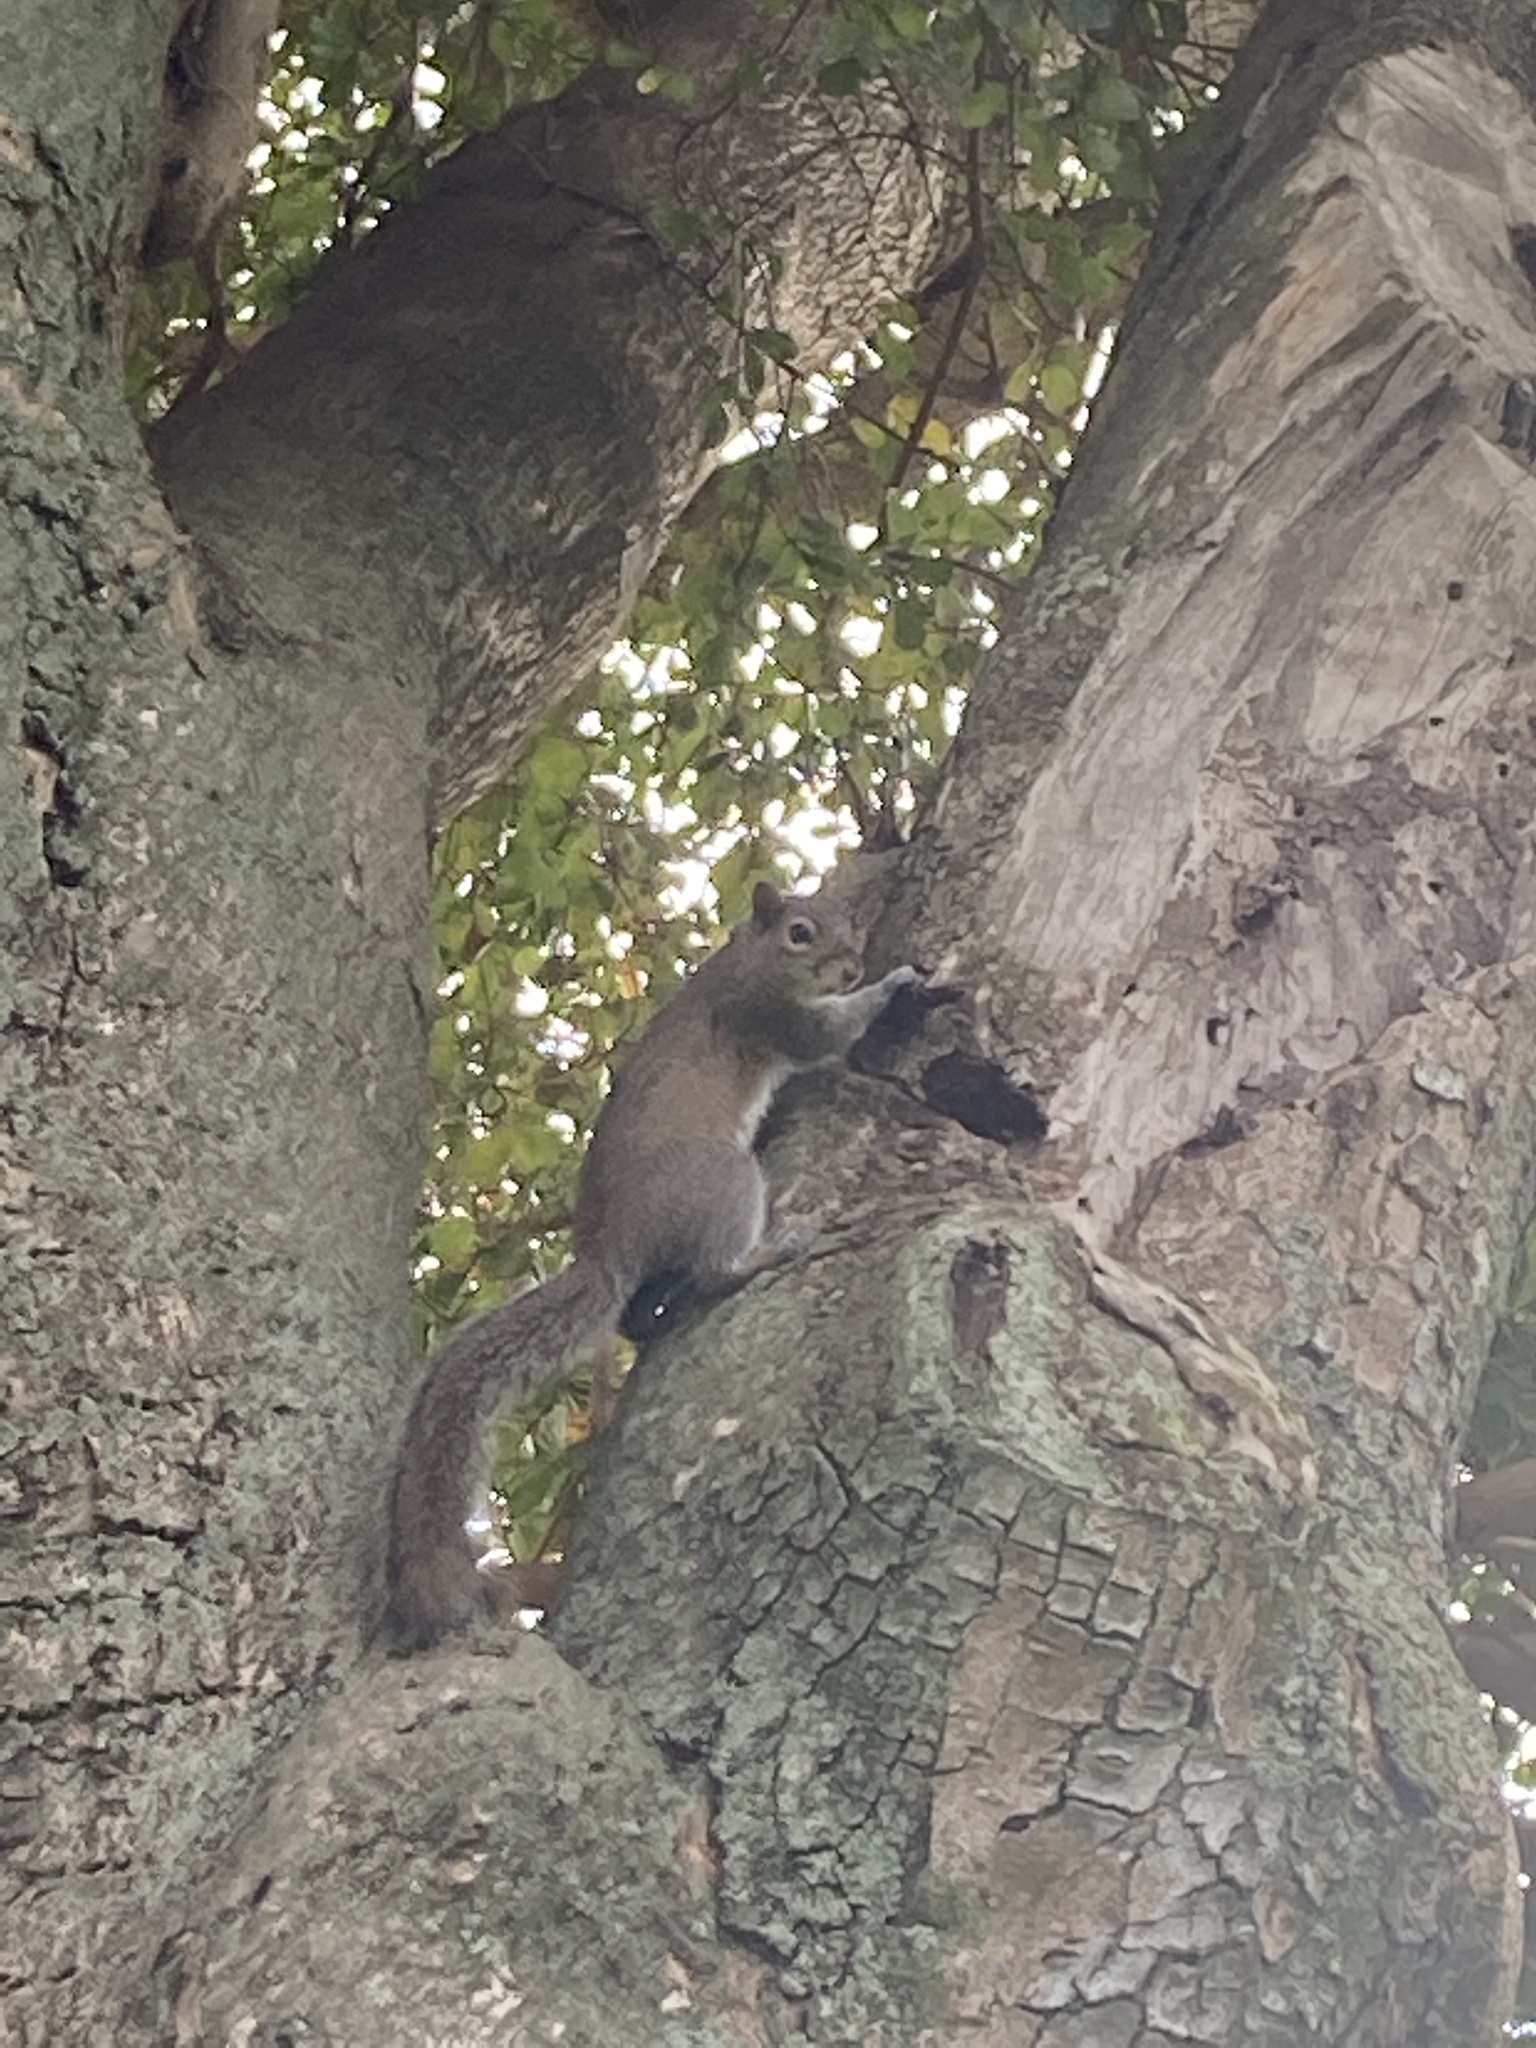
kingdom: Animalia
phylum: Chordata
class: Mammalia
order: Rodentia
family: Sciuridae
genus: Sciurus
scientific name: Sciurus carolinensis
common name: Eastern gray squirrel
